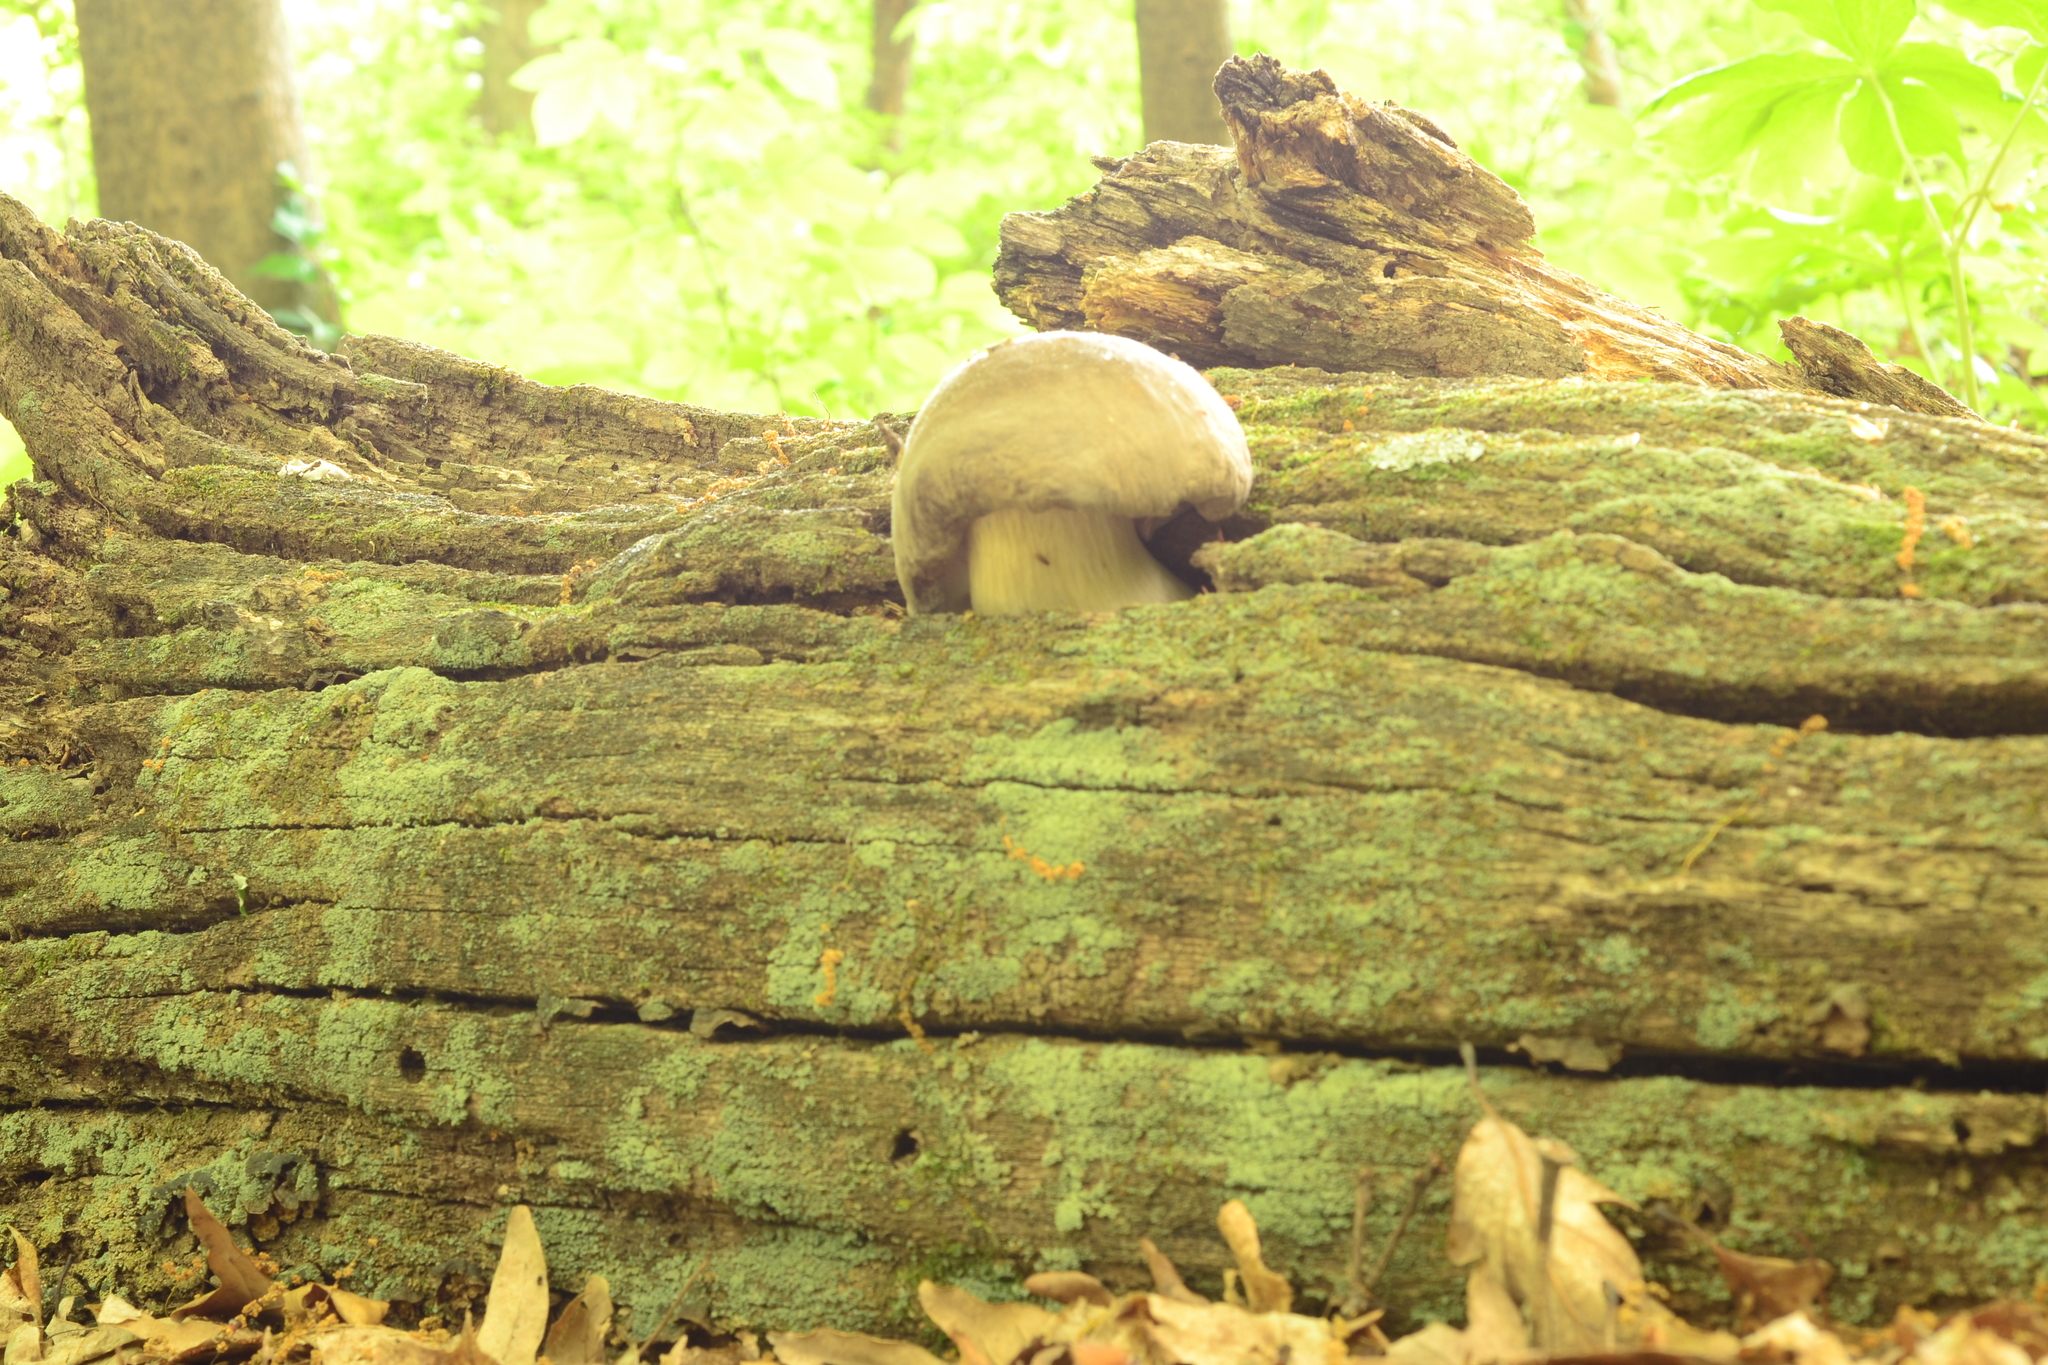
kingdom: Fungi
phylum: Basidiomycota
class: Agaricomycetes
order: Agaricales
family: Tricholomataceae
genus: Megacollybia
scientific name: Megacollybia rodmanii
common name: Eastern american platterful mushroom
